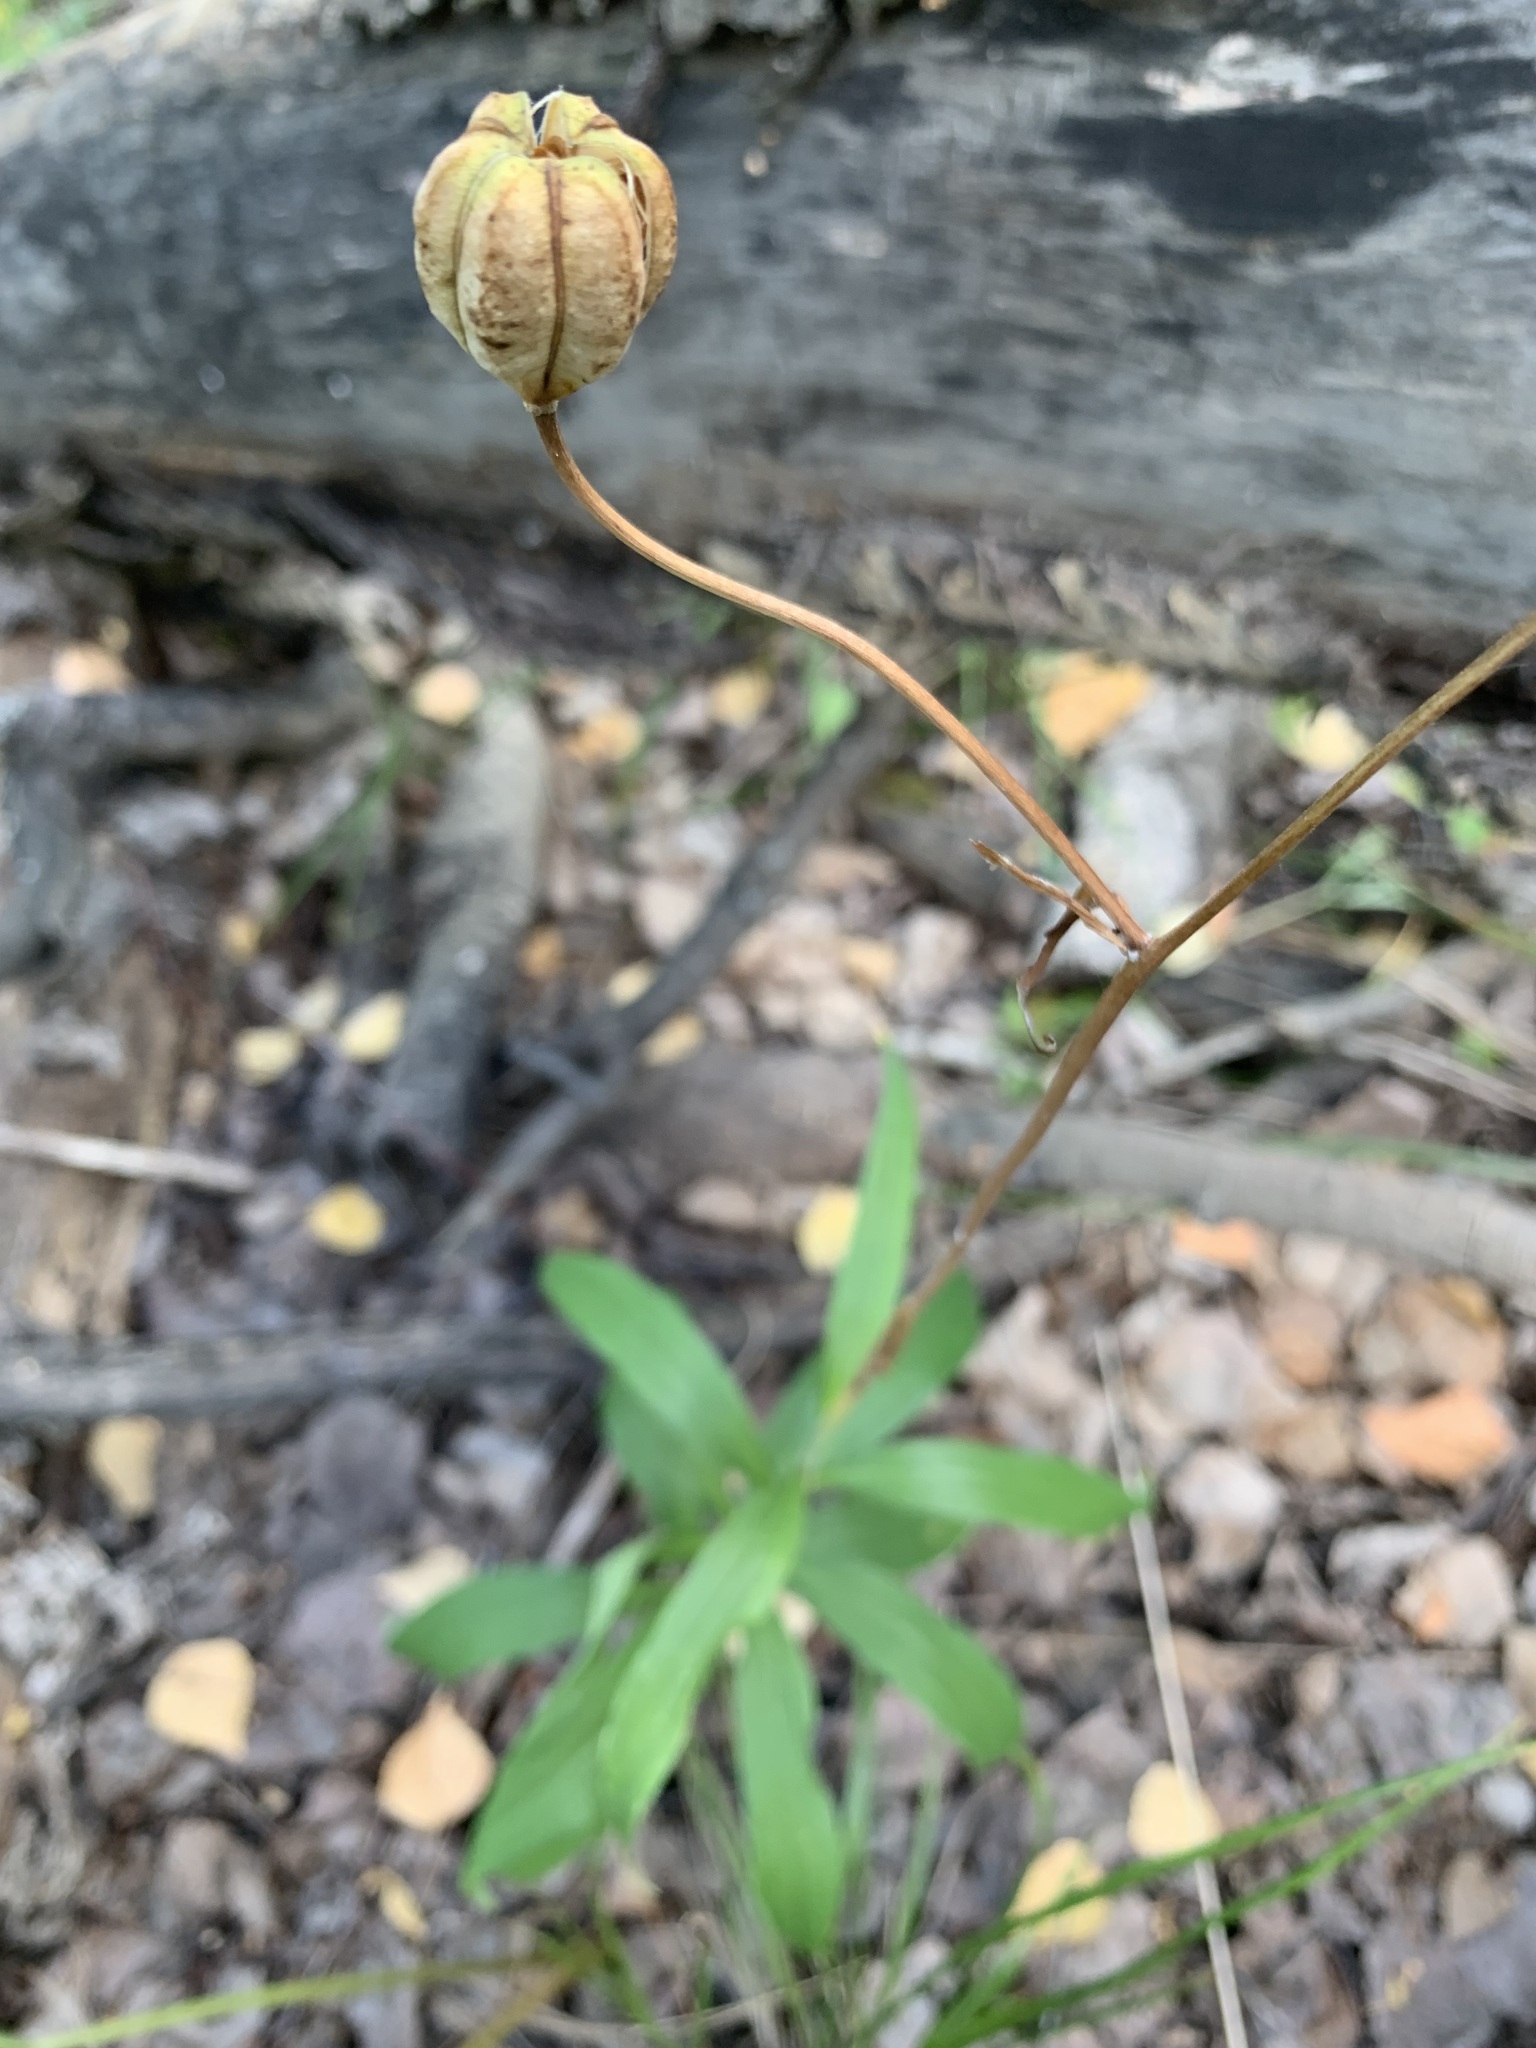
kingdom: Plantae
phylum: Tracheophyta
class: Liliopsida
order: Liliales
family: Liliaceae
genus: Lilium
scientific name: Lilium martagon
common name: Martagon lily
